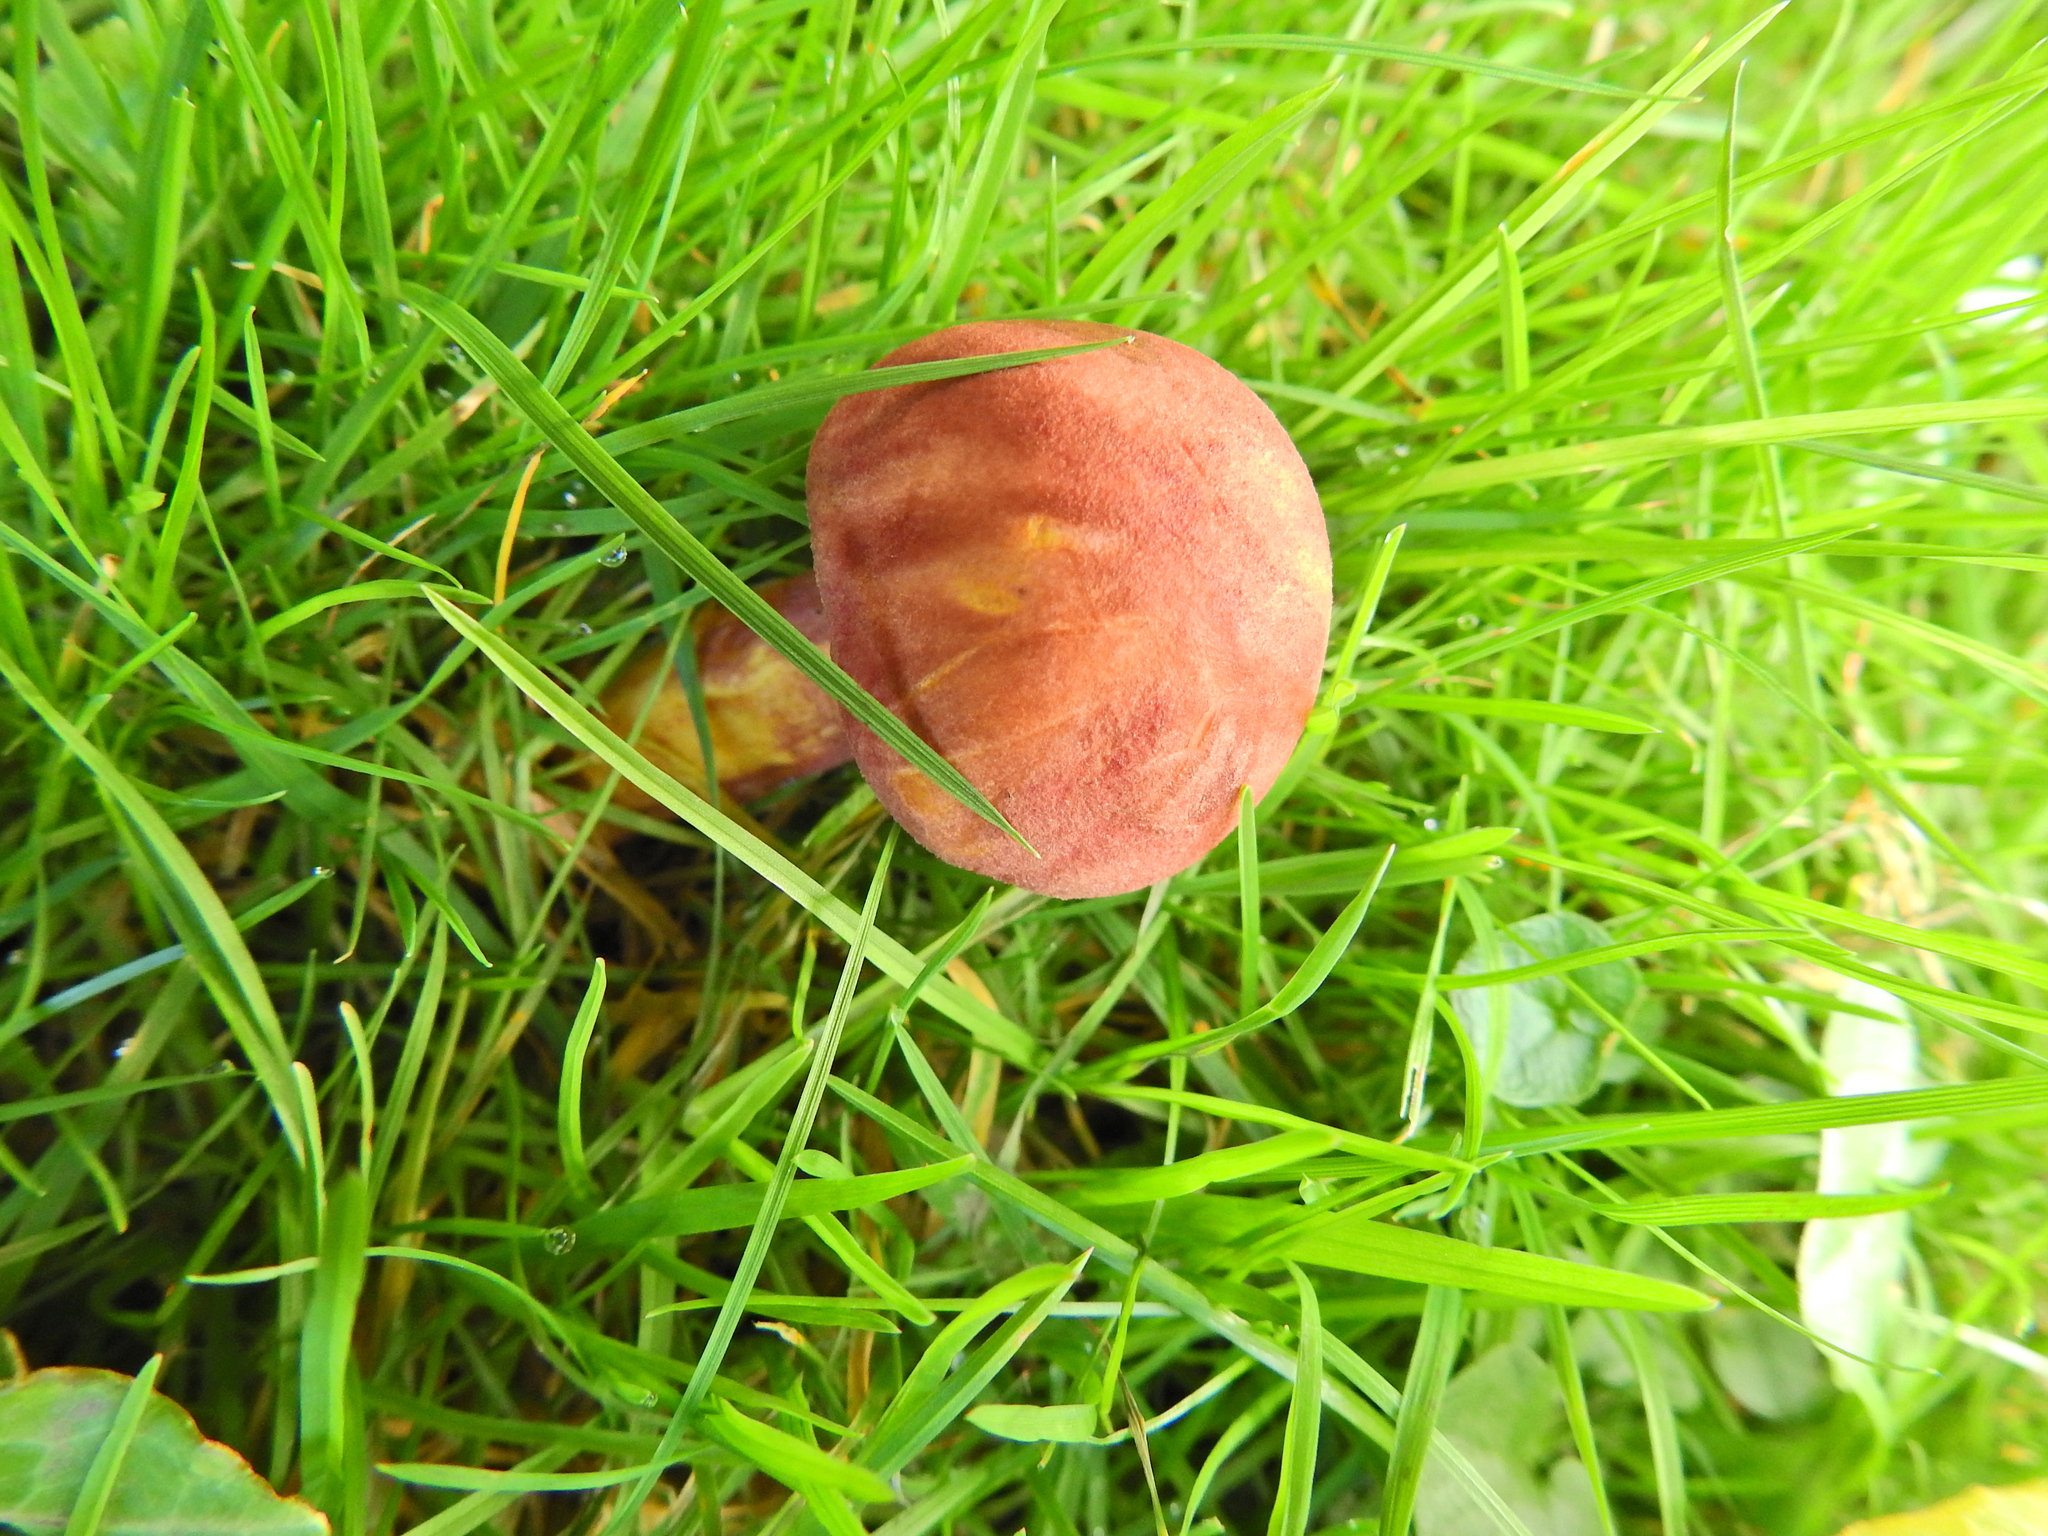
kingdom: Fungi
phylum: Basidiomycota
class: Agaricomycetes
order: Agaricales
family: Tricholomataceae
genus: Tricholomopsis
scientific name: Tricholomopsis rutilans
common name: Plums and custard
